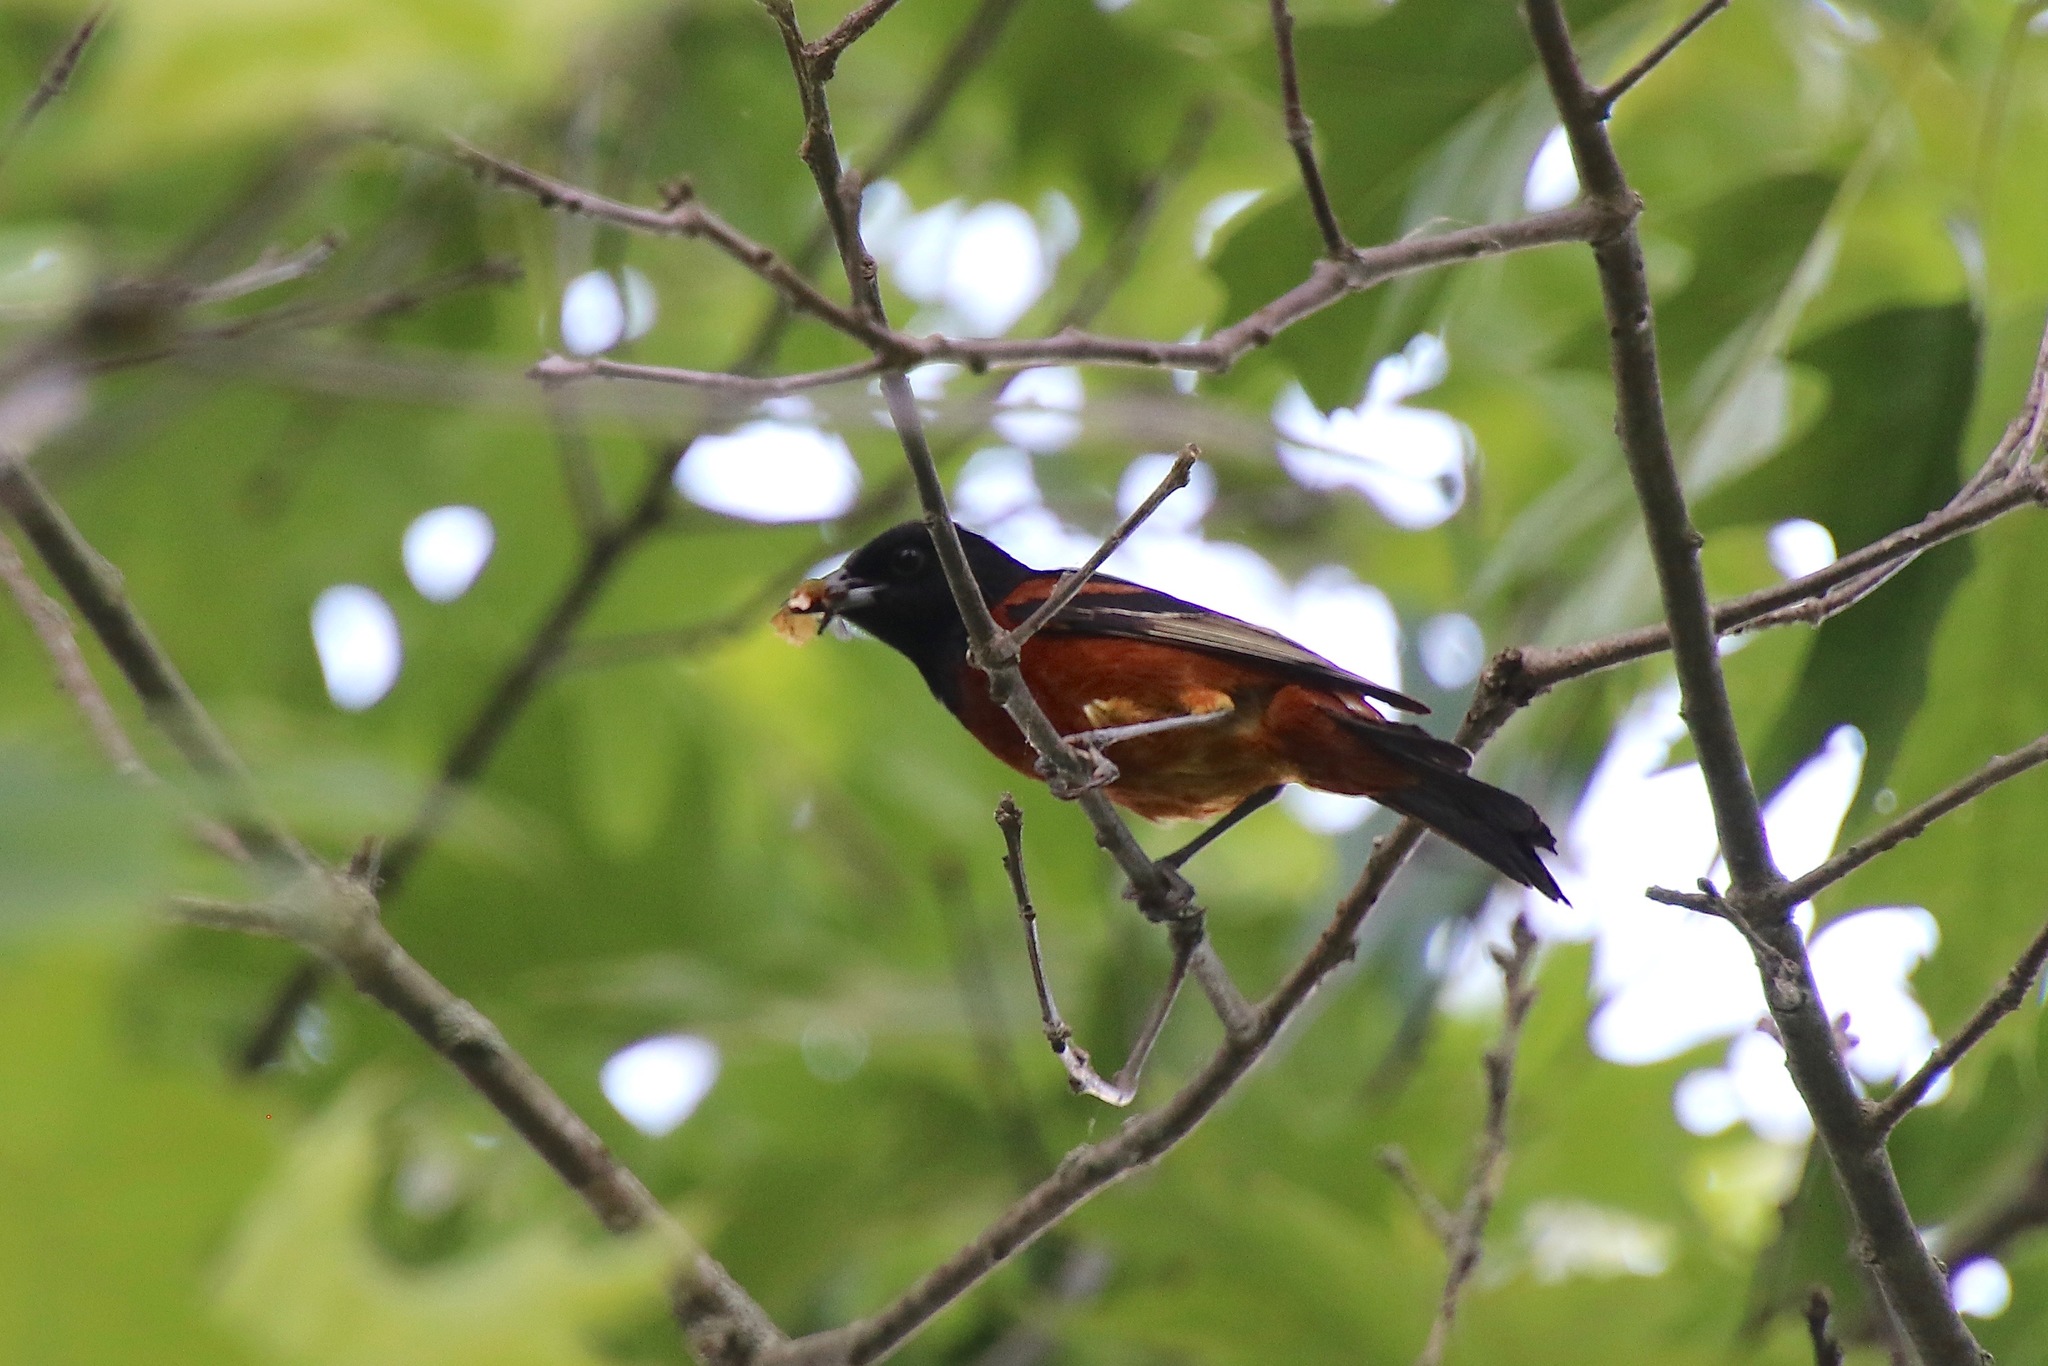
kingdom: Animalia
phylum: Chordata
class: Aves
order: Passeriformes
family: Icteridae
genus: Icterus
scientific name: Icterus spurius
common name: Orchard oriole
